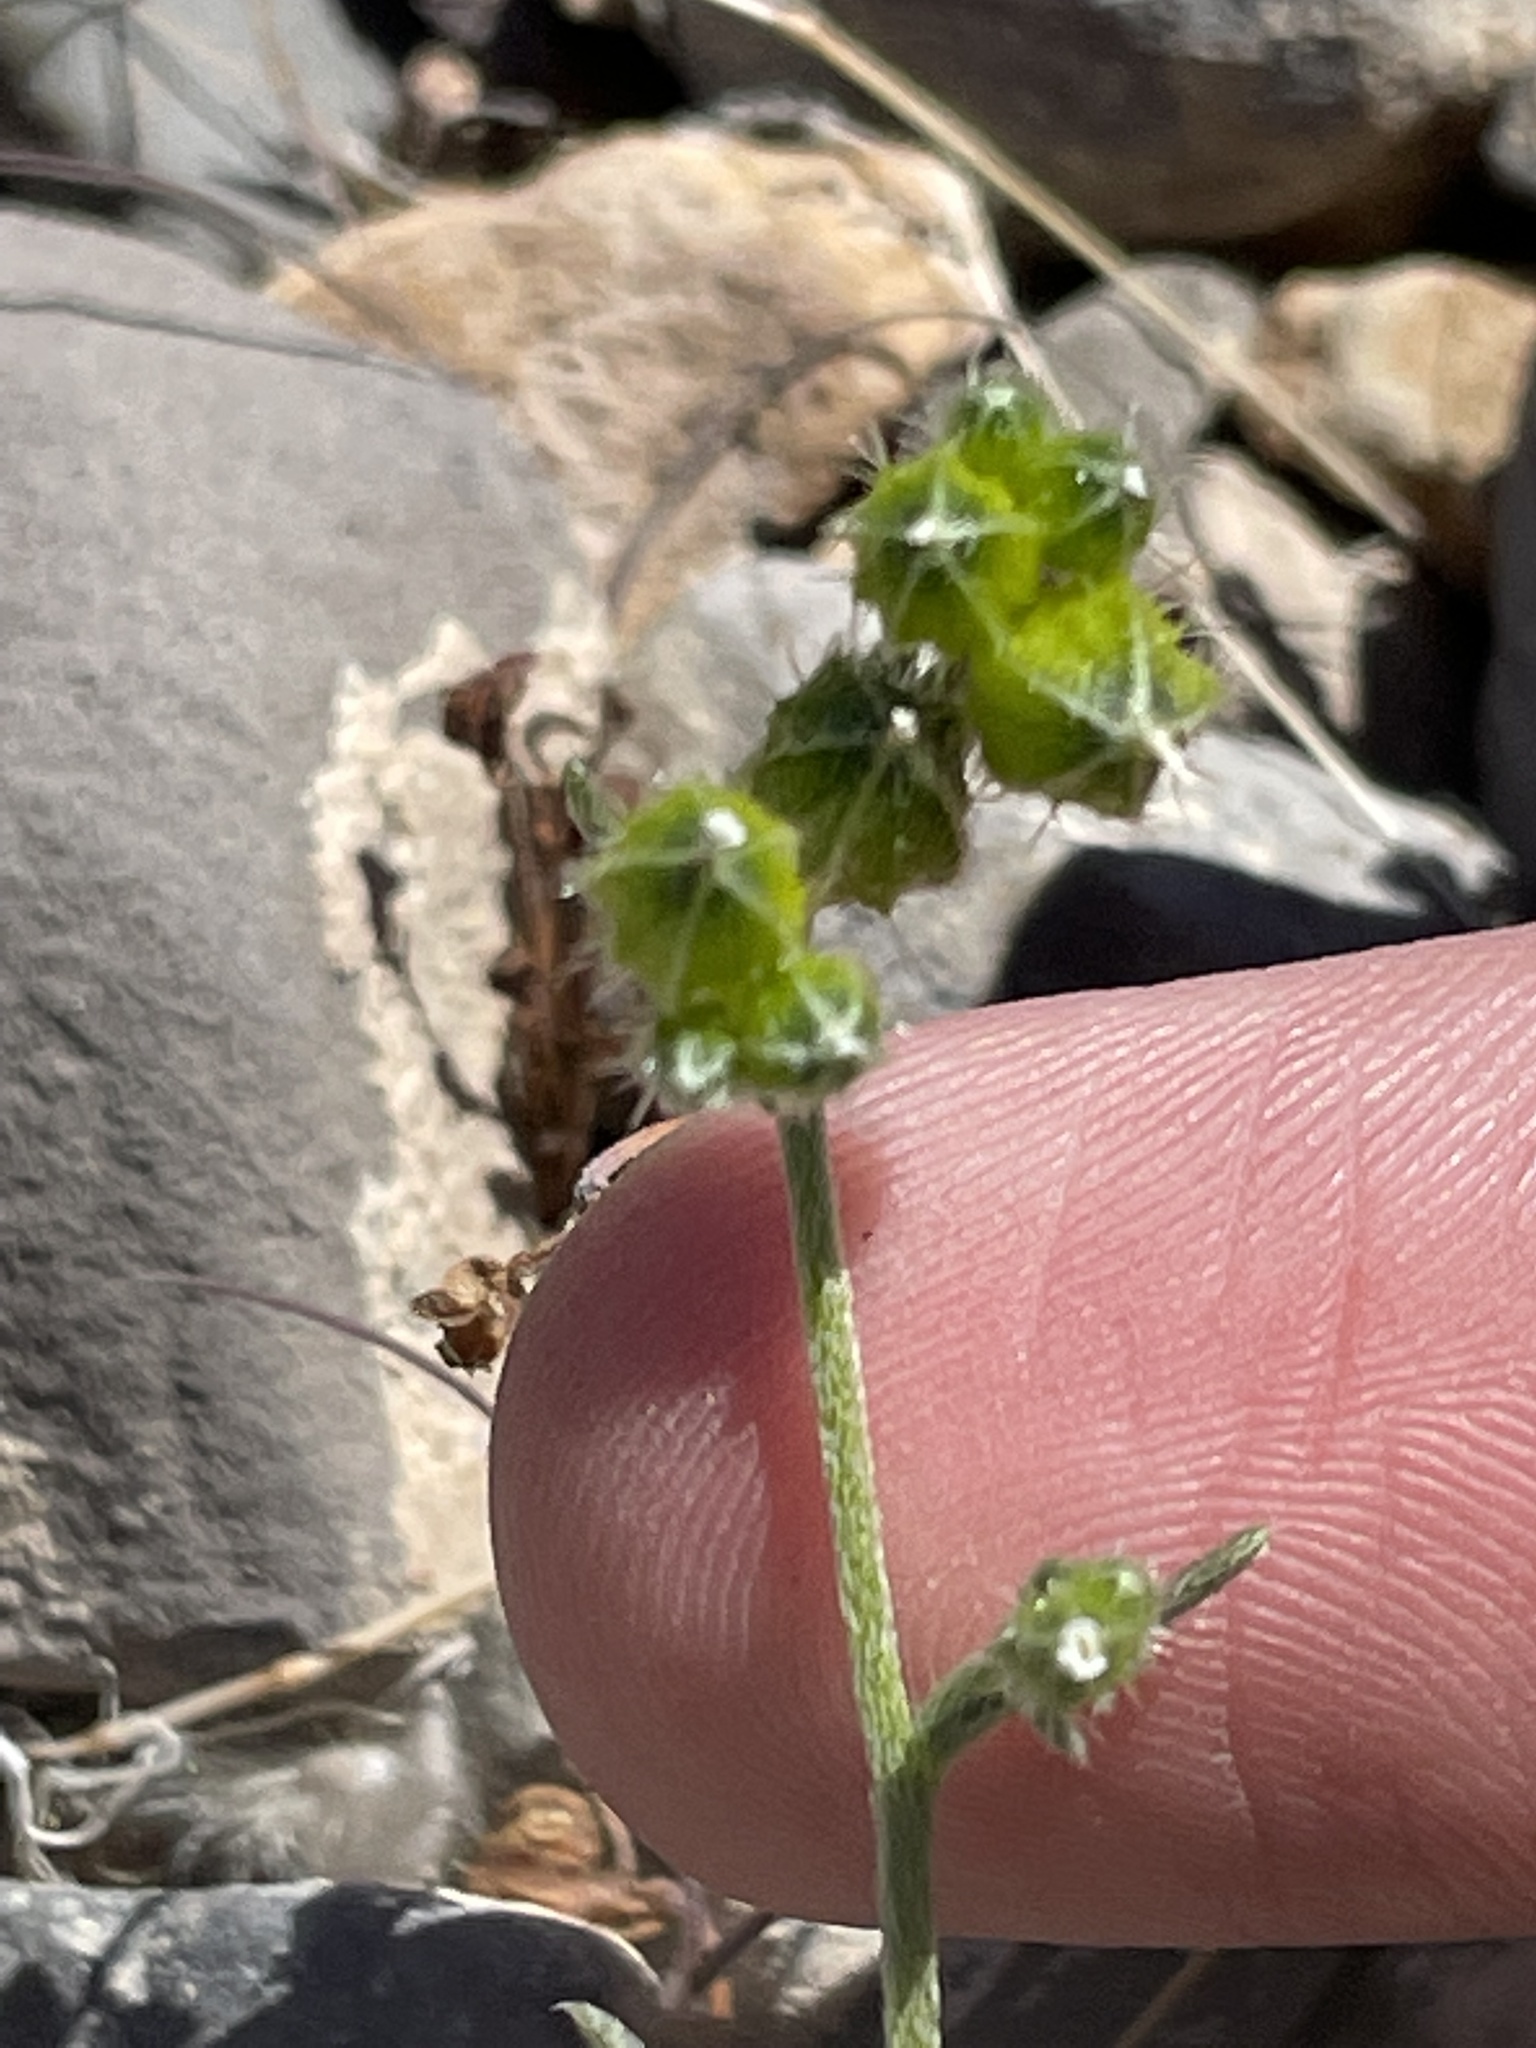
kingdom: Plantae
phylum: Tracheophyta
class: Magnoliopsida
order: Boraginales
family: Boraginaceae
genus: Cryptantha
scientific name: Cryptantha pterocarya
